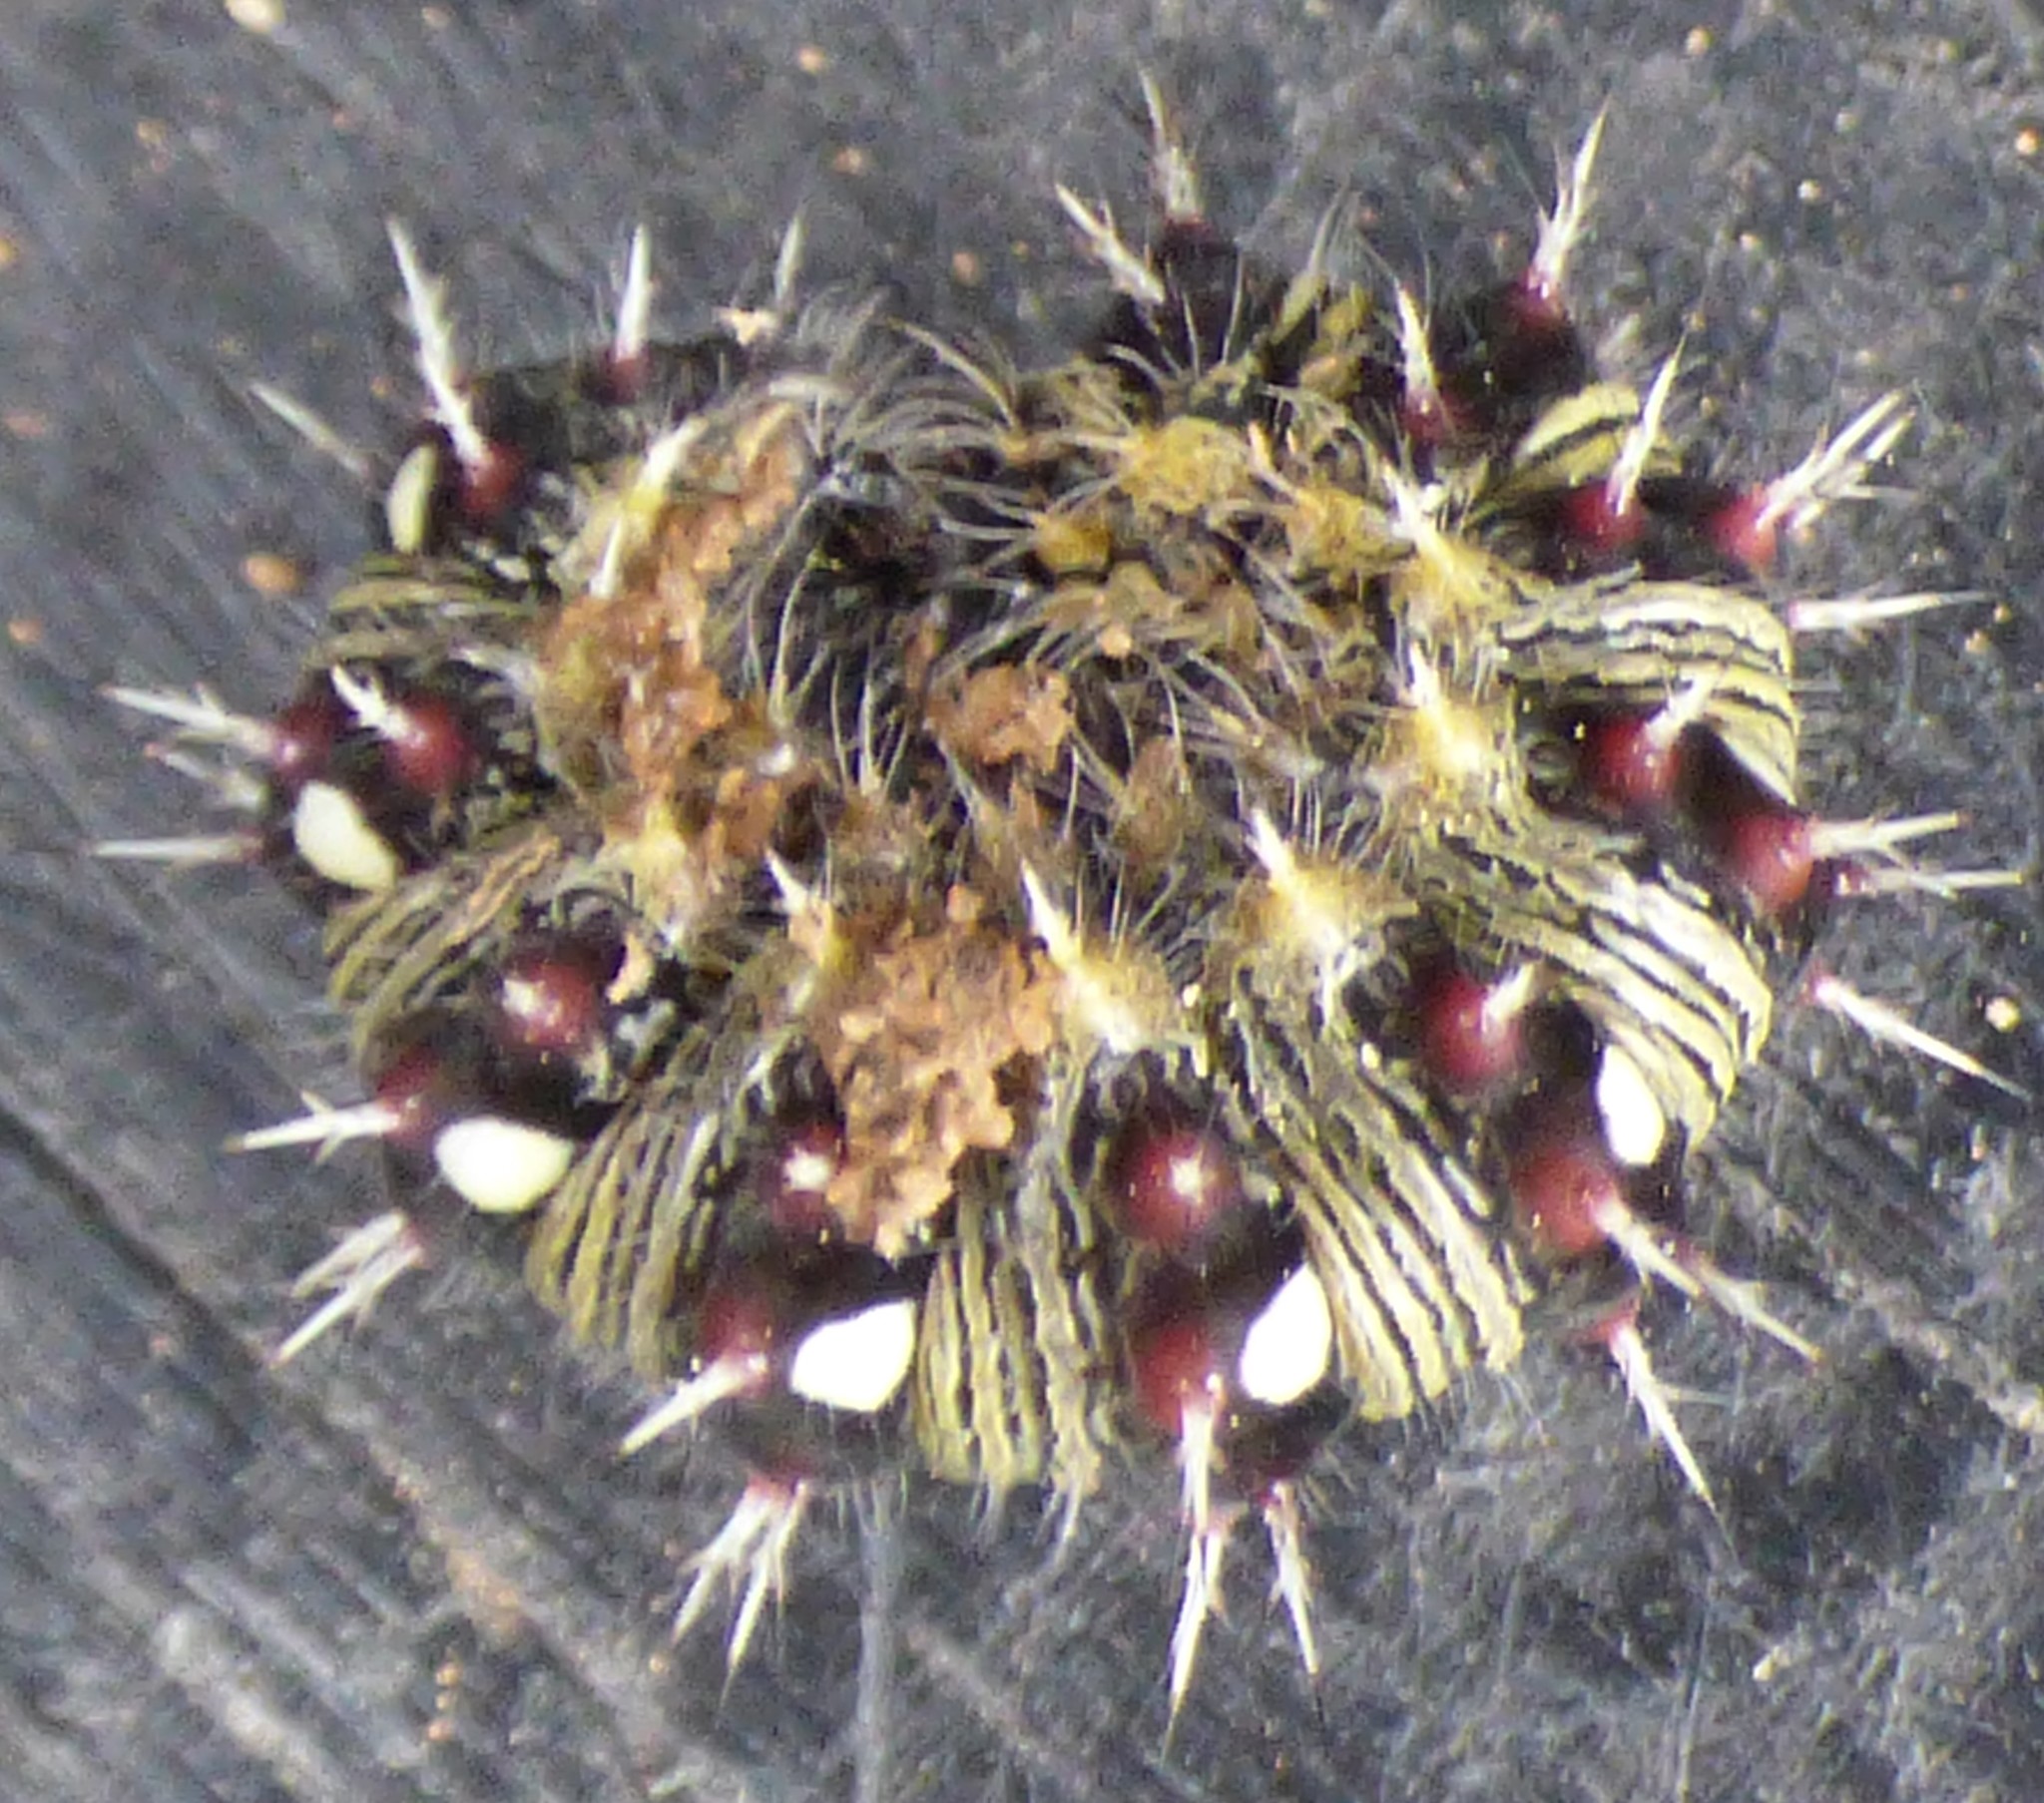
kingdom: Animalia
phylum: Arthropoda
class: Insecta
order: Lepidoptera
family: Nymphalidae
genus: Vanessa
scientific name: Vanessa virginiensis
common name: American lady
